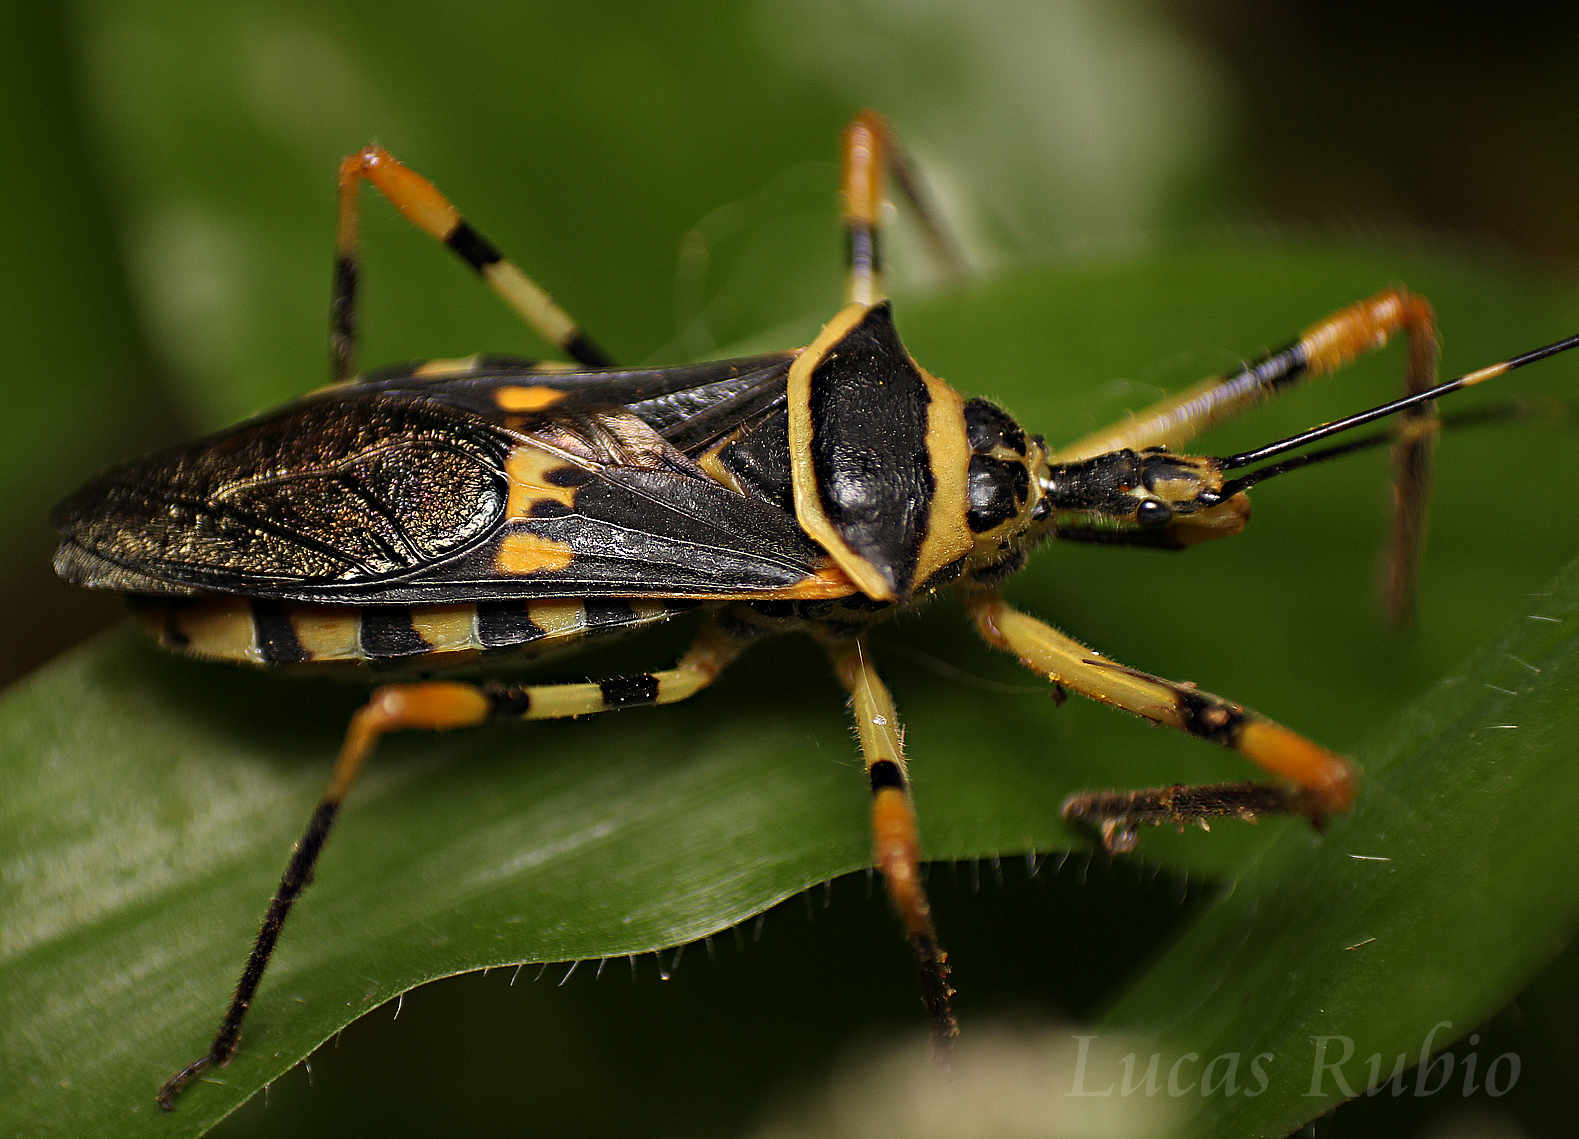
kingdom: Animalia
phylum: Arthropoda
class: Insecta
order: Hemiptera
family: Reduviidae
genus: Zelus
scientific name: Zelus armillatus
